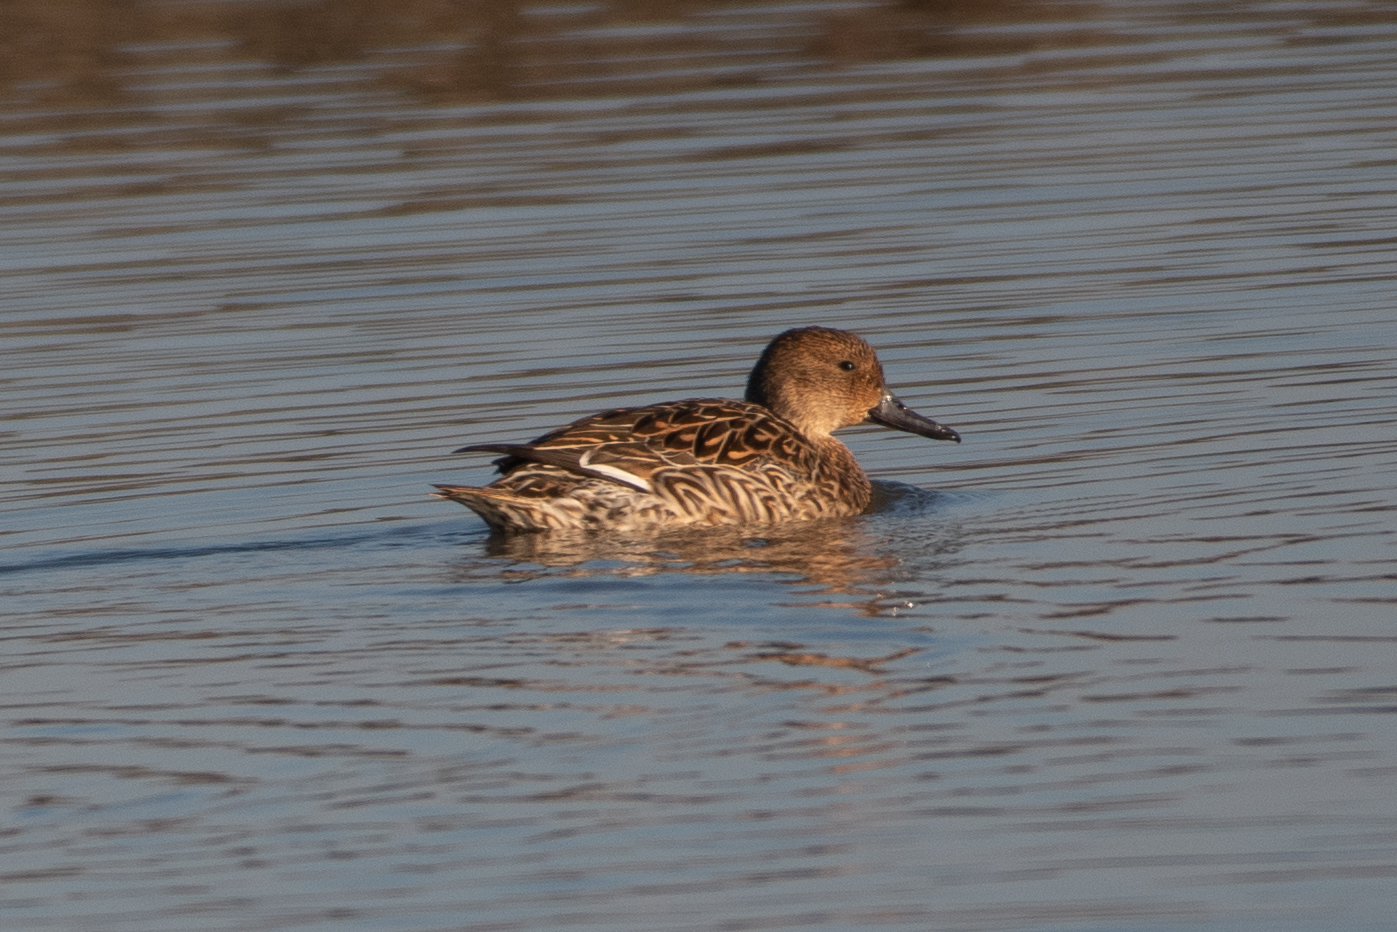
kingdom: Animalia
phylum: Chordata
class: Aves
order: Anseriformes
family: Anatidae
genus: Anas
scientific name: Anas acuta
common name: Northern pintail
